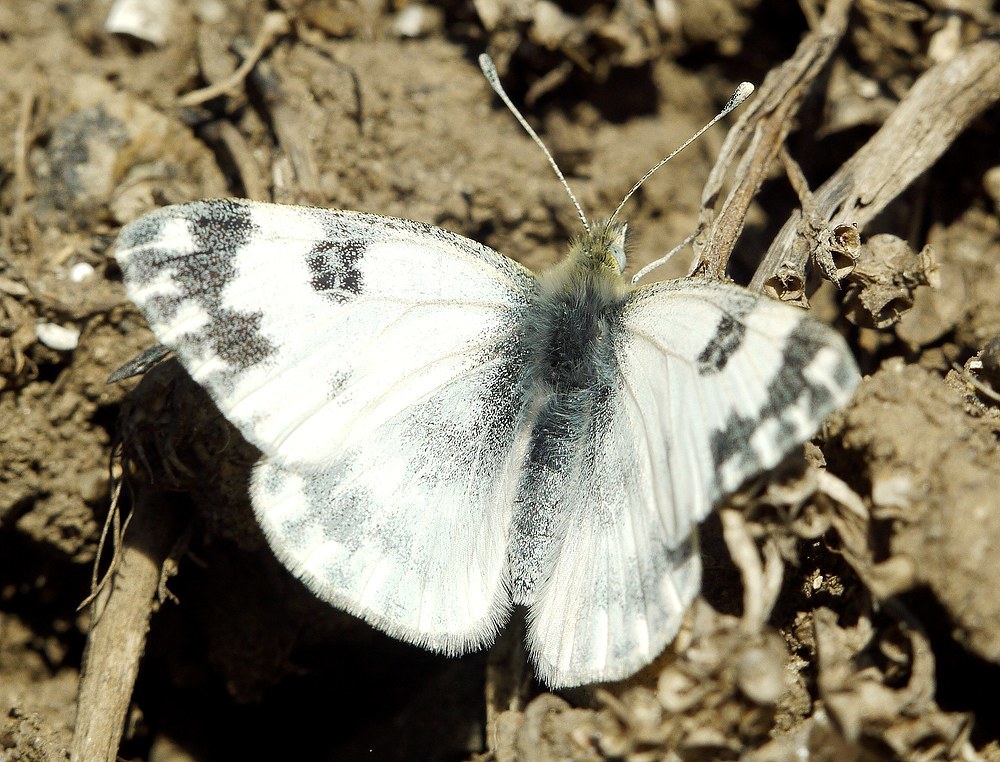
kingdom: Animalia
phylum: Arthropoda
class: Insecta
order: Lepidoptera
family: Pieridae
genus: Pontia
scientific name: Pontia edusa
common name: Eastern bath white
